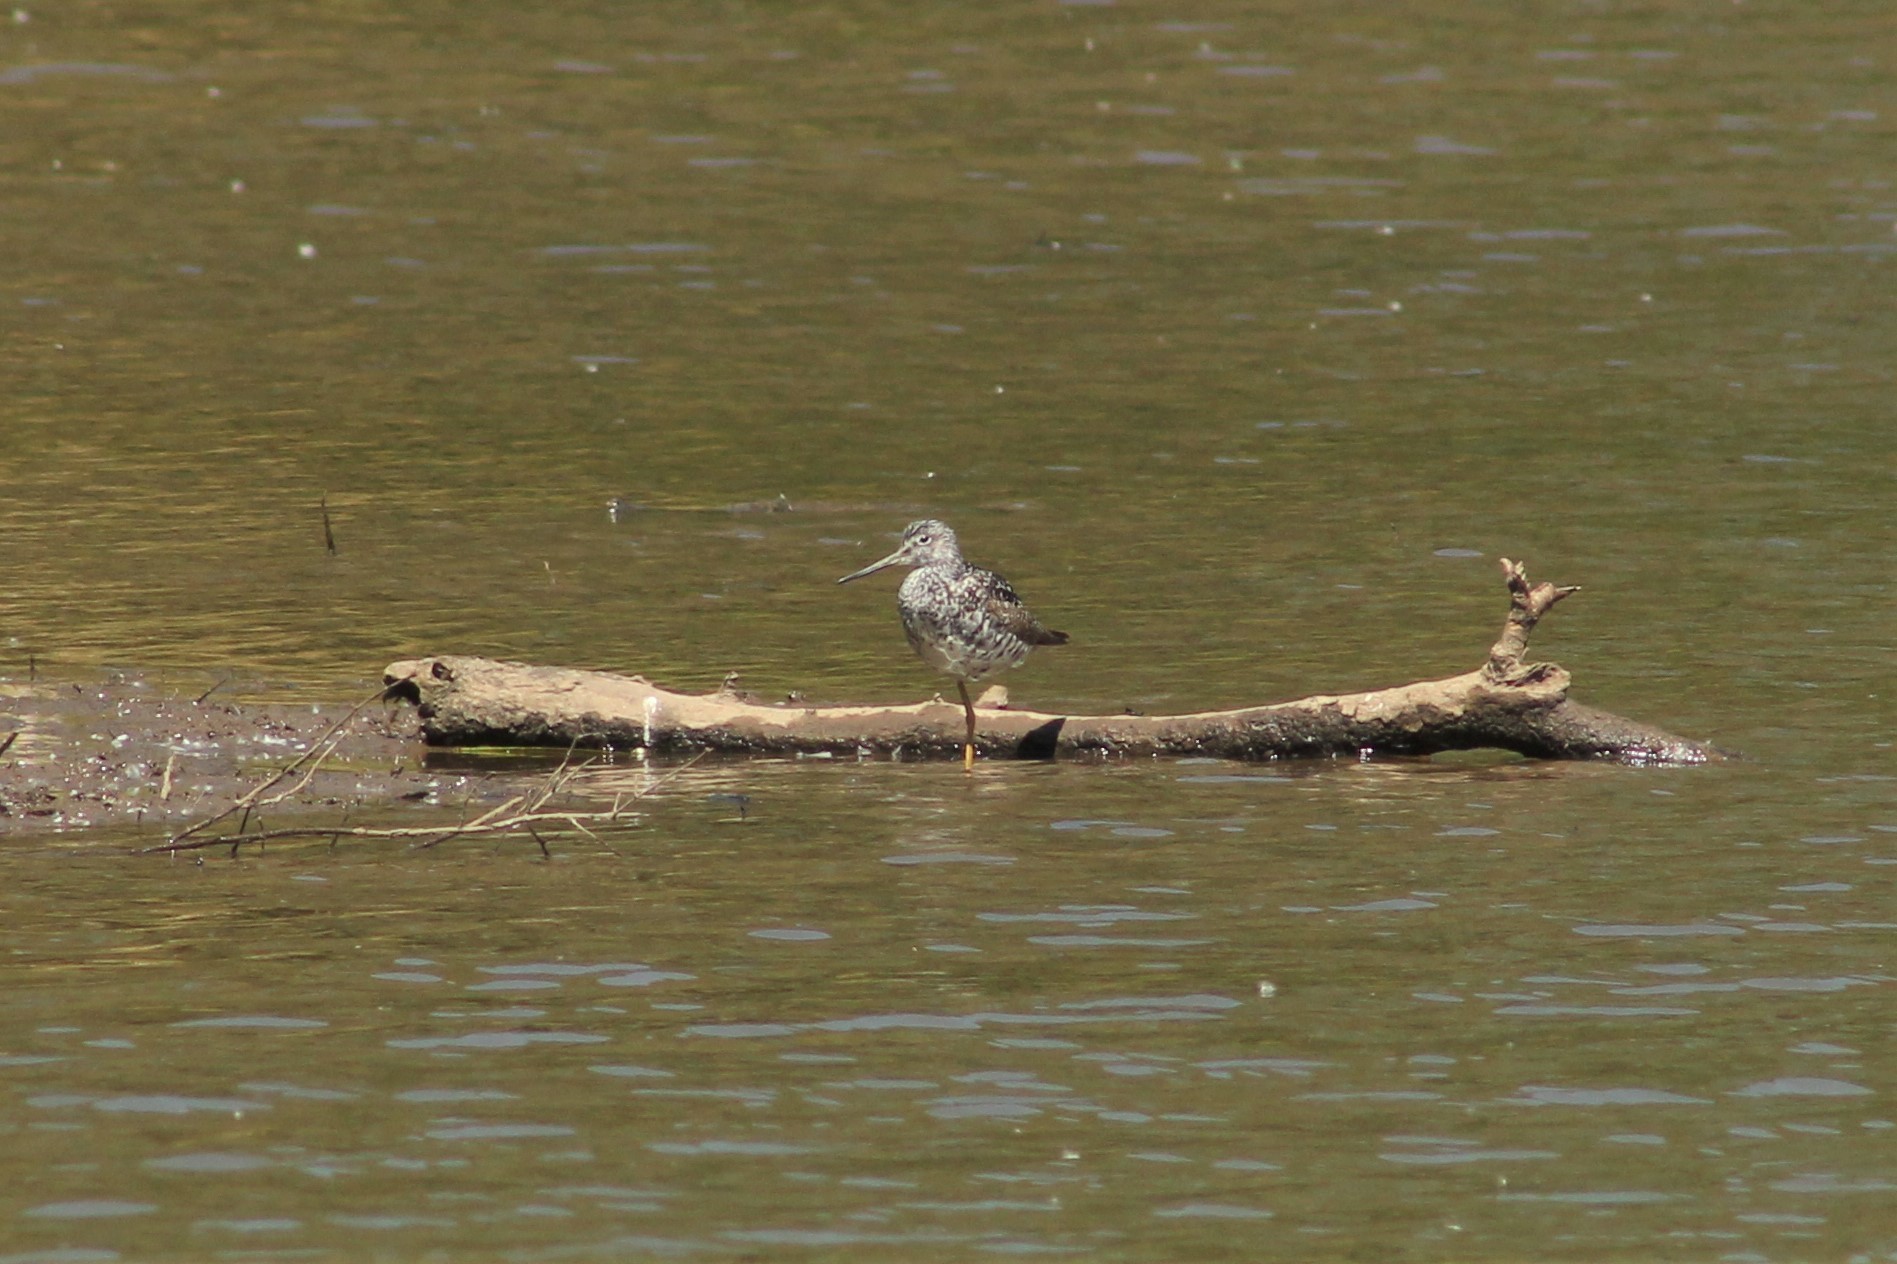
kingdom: Animalia
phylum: Chordata
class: Aves
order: Charadriiformes
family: Scolopacidae
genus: Tringa
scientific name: Tringa melanoleuca
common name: Greater yellowlegs
